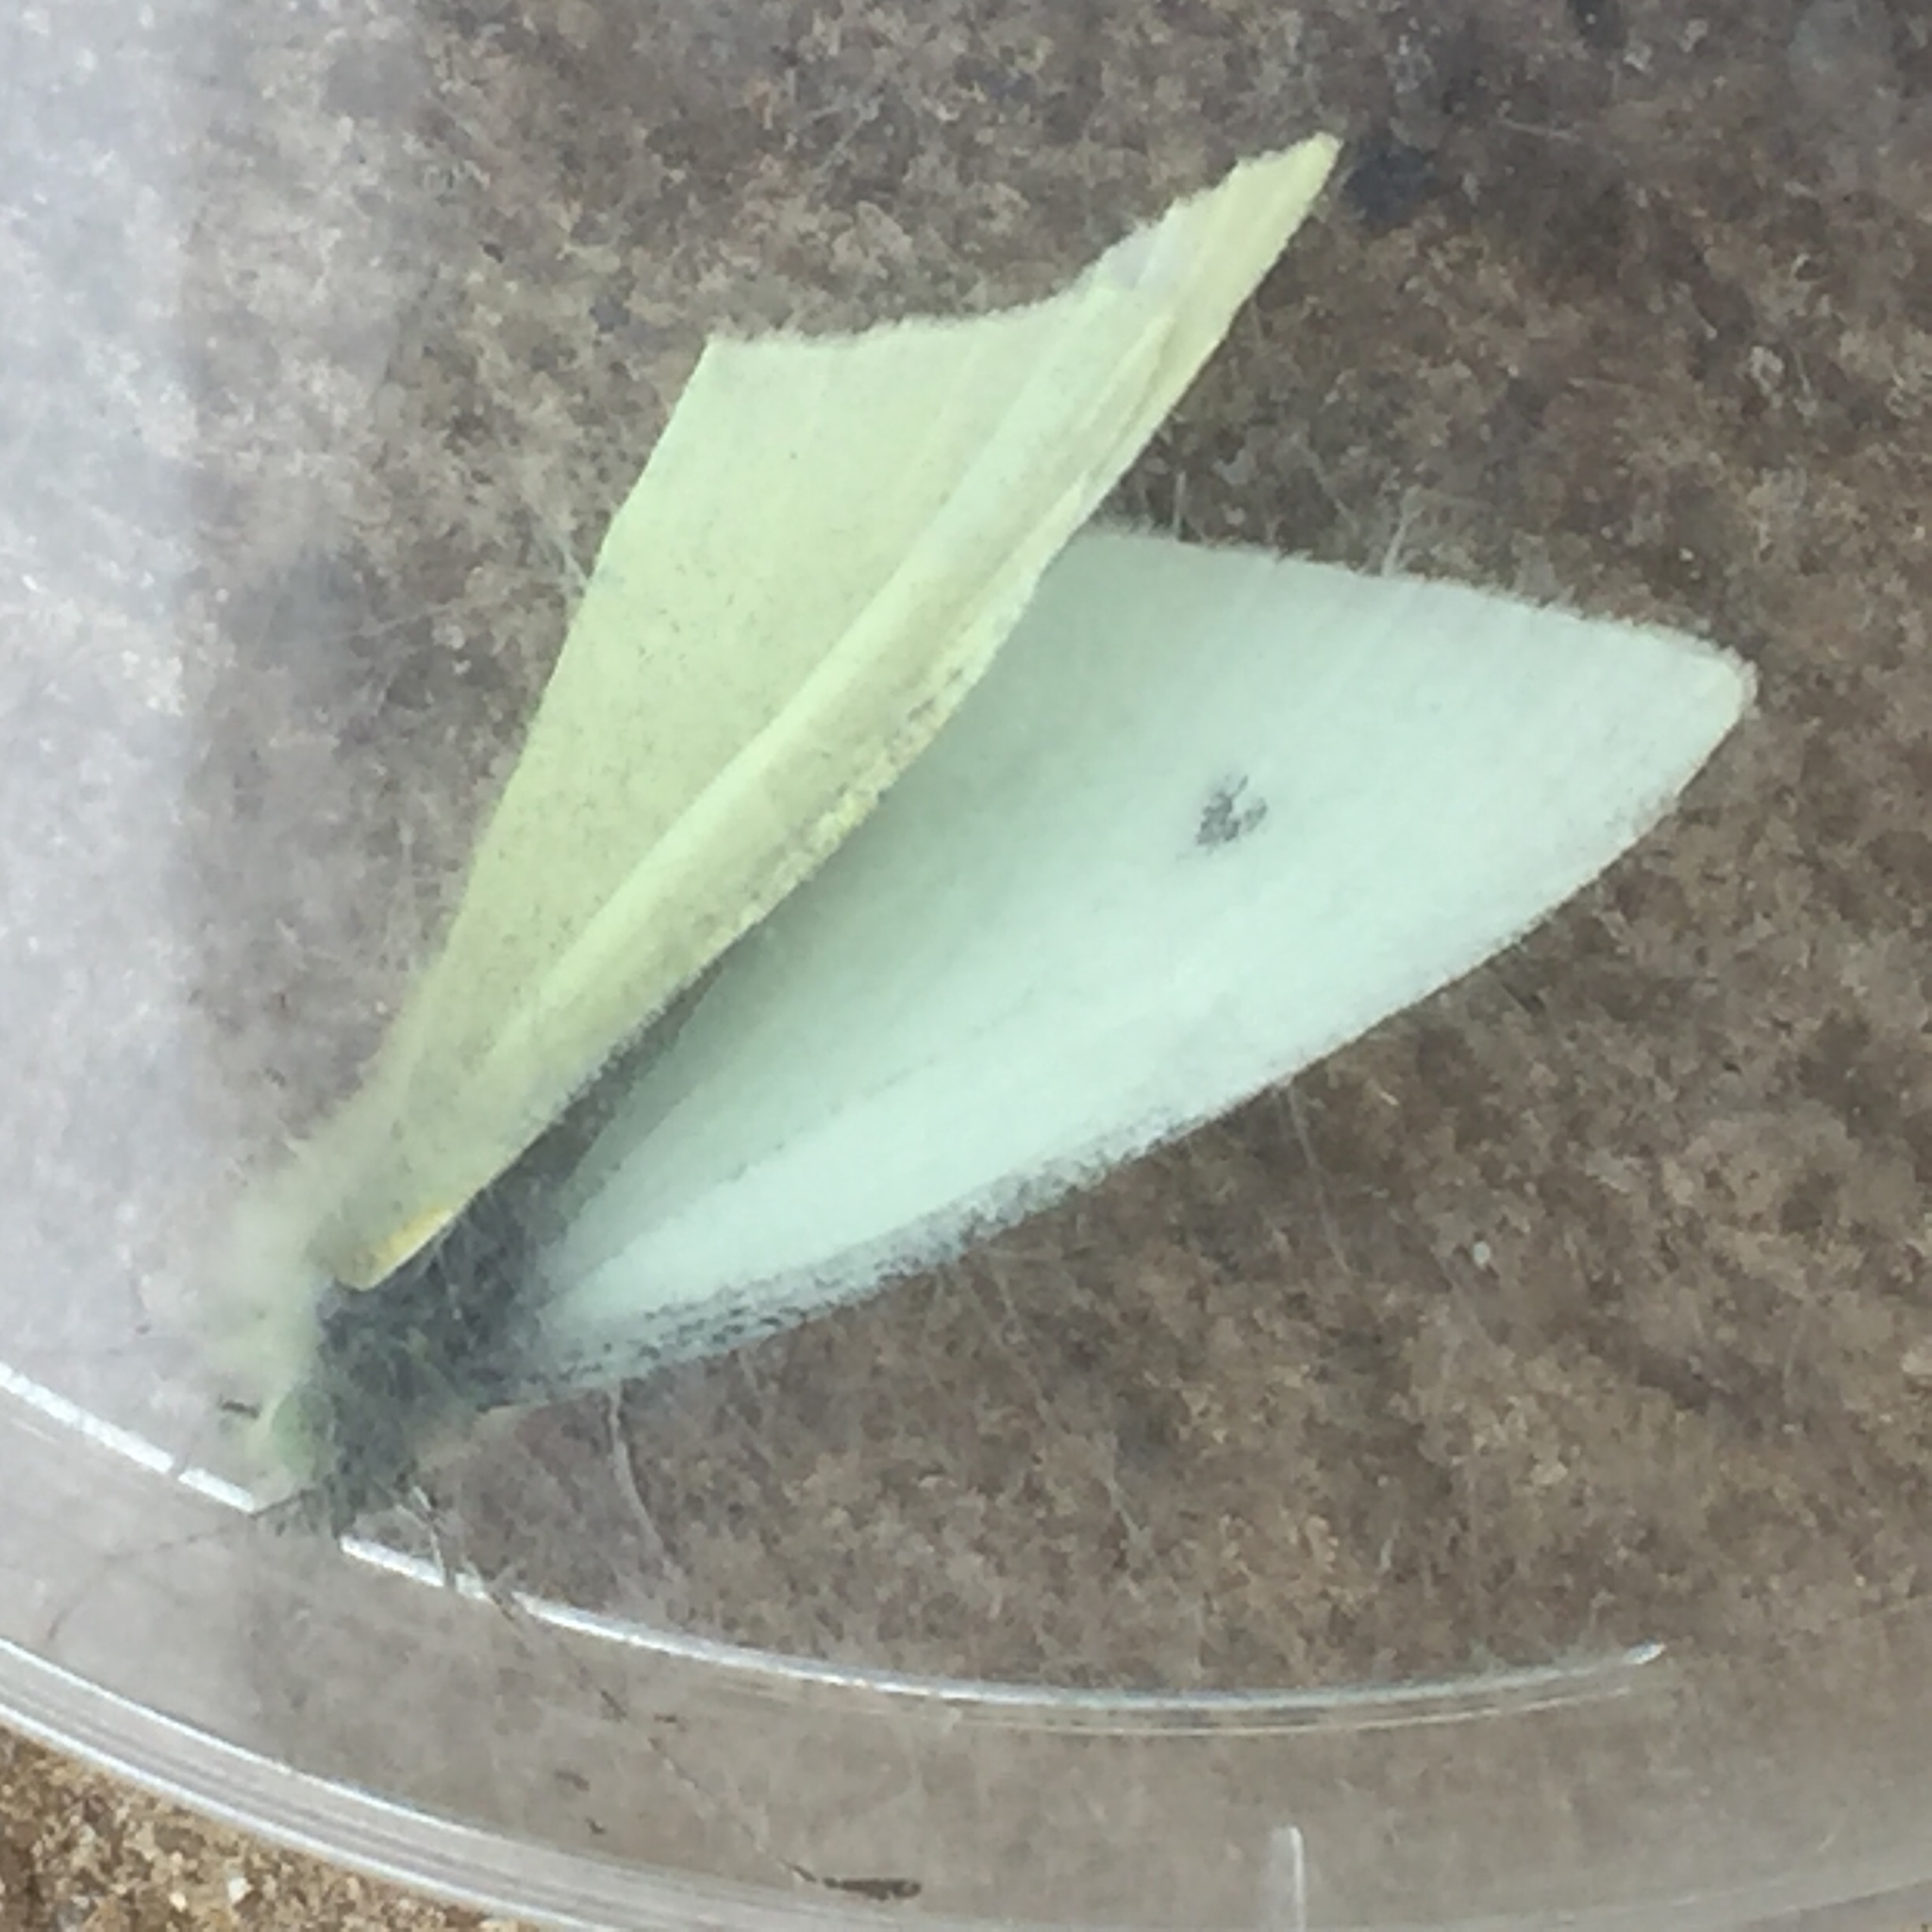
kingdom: Animalia
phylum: Arthropoda
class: Insecta
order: Lepidoptera
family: Pieridae
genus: Pieris
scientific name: Pieris rapae
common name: Small white
